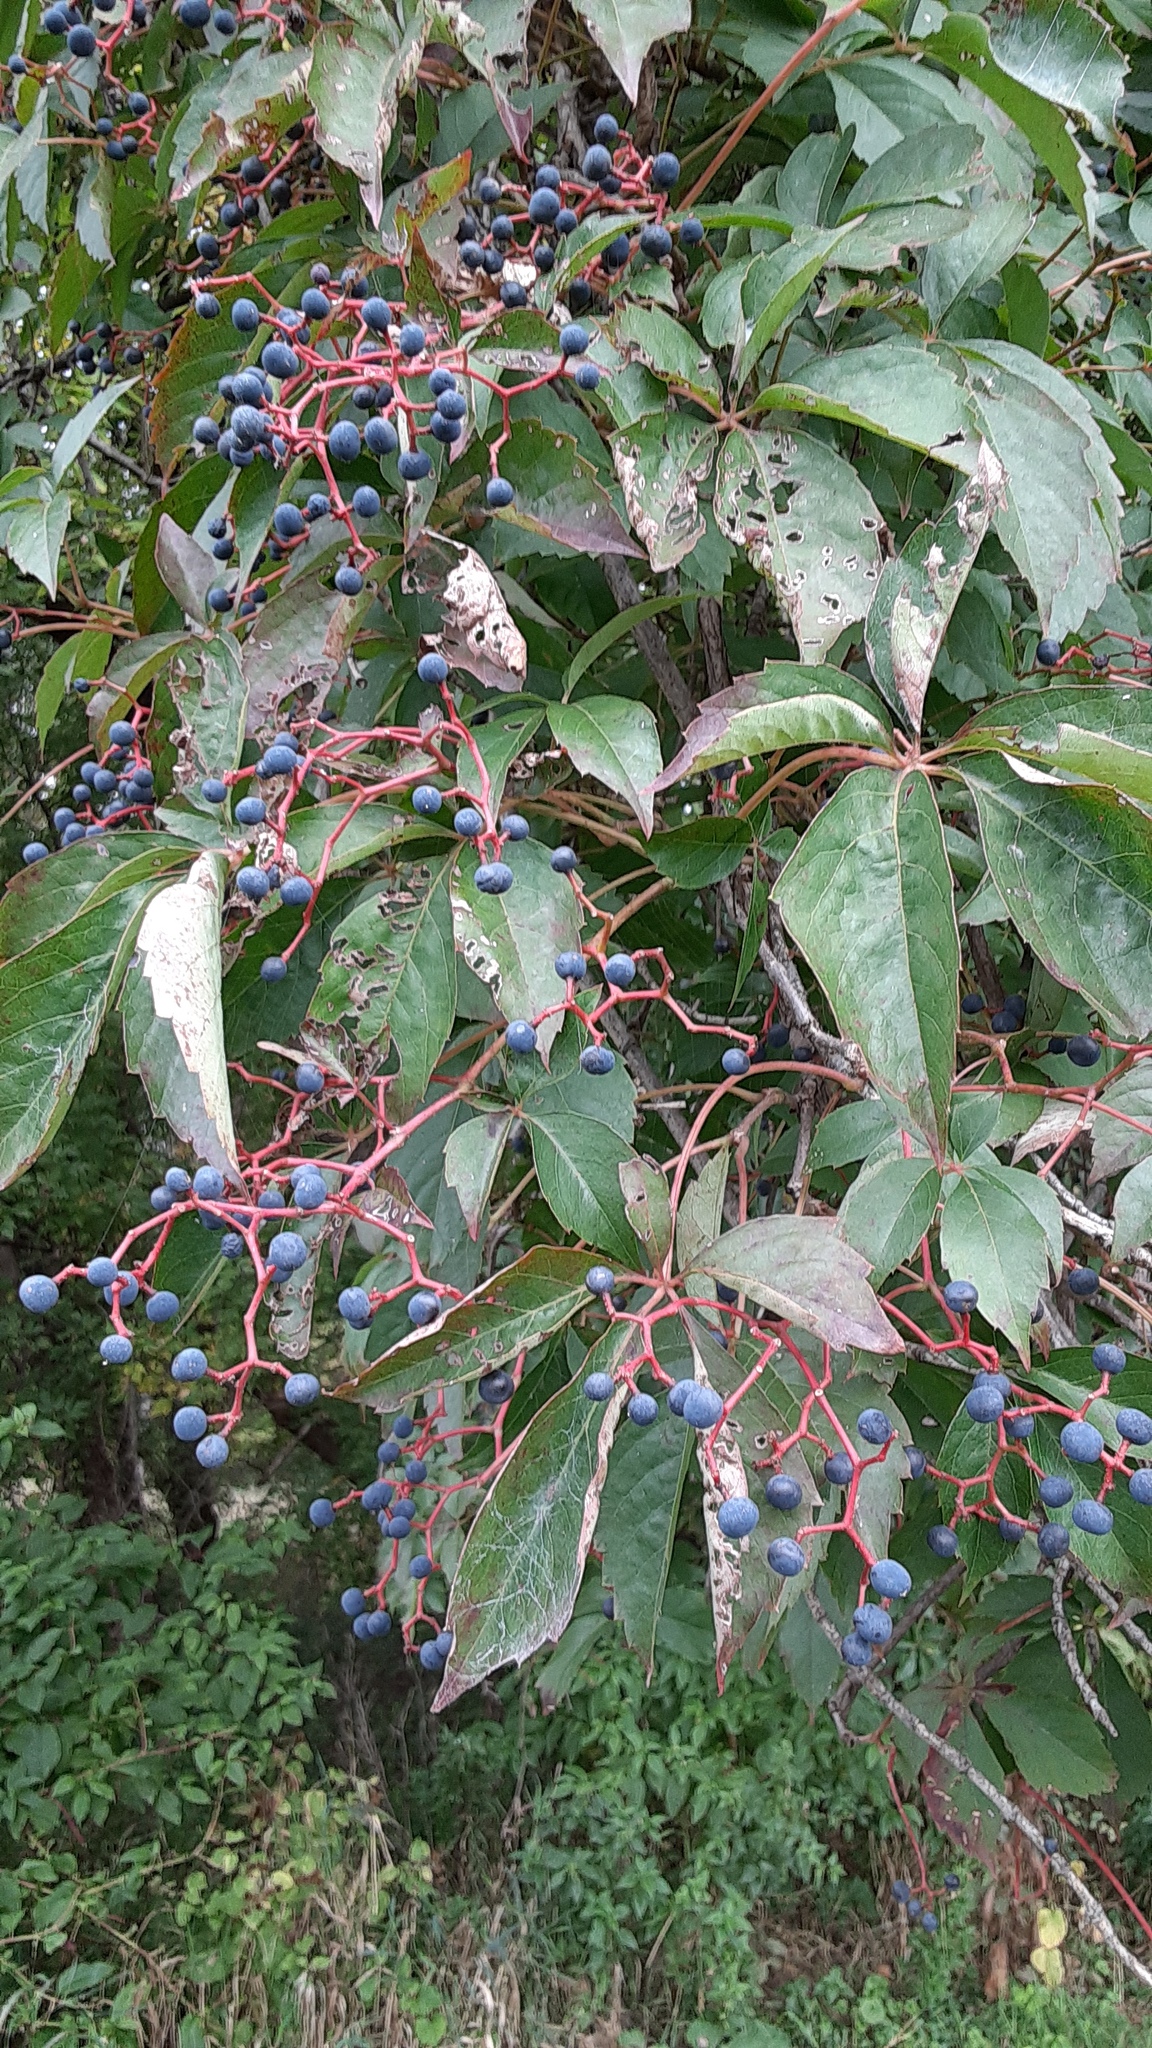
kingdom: Plantae
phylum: Tracheophyta
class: Magnoliopsida
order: Vitales
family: Vitaceae
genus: Parthenocissus
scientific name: Parthenocissus quinquefolia
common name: Virginia-creeper
